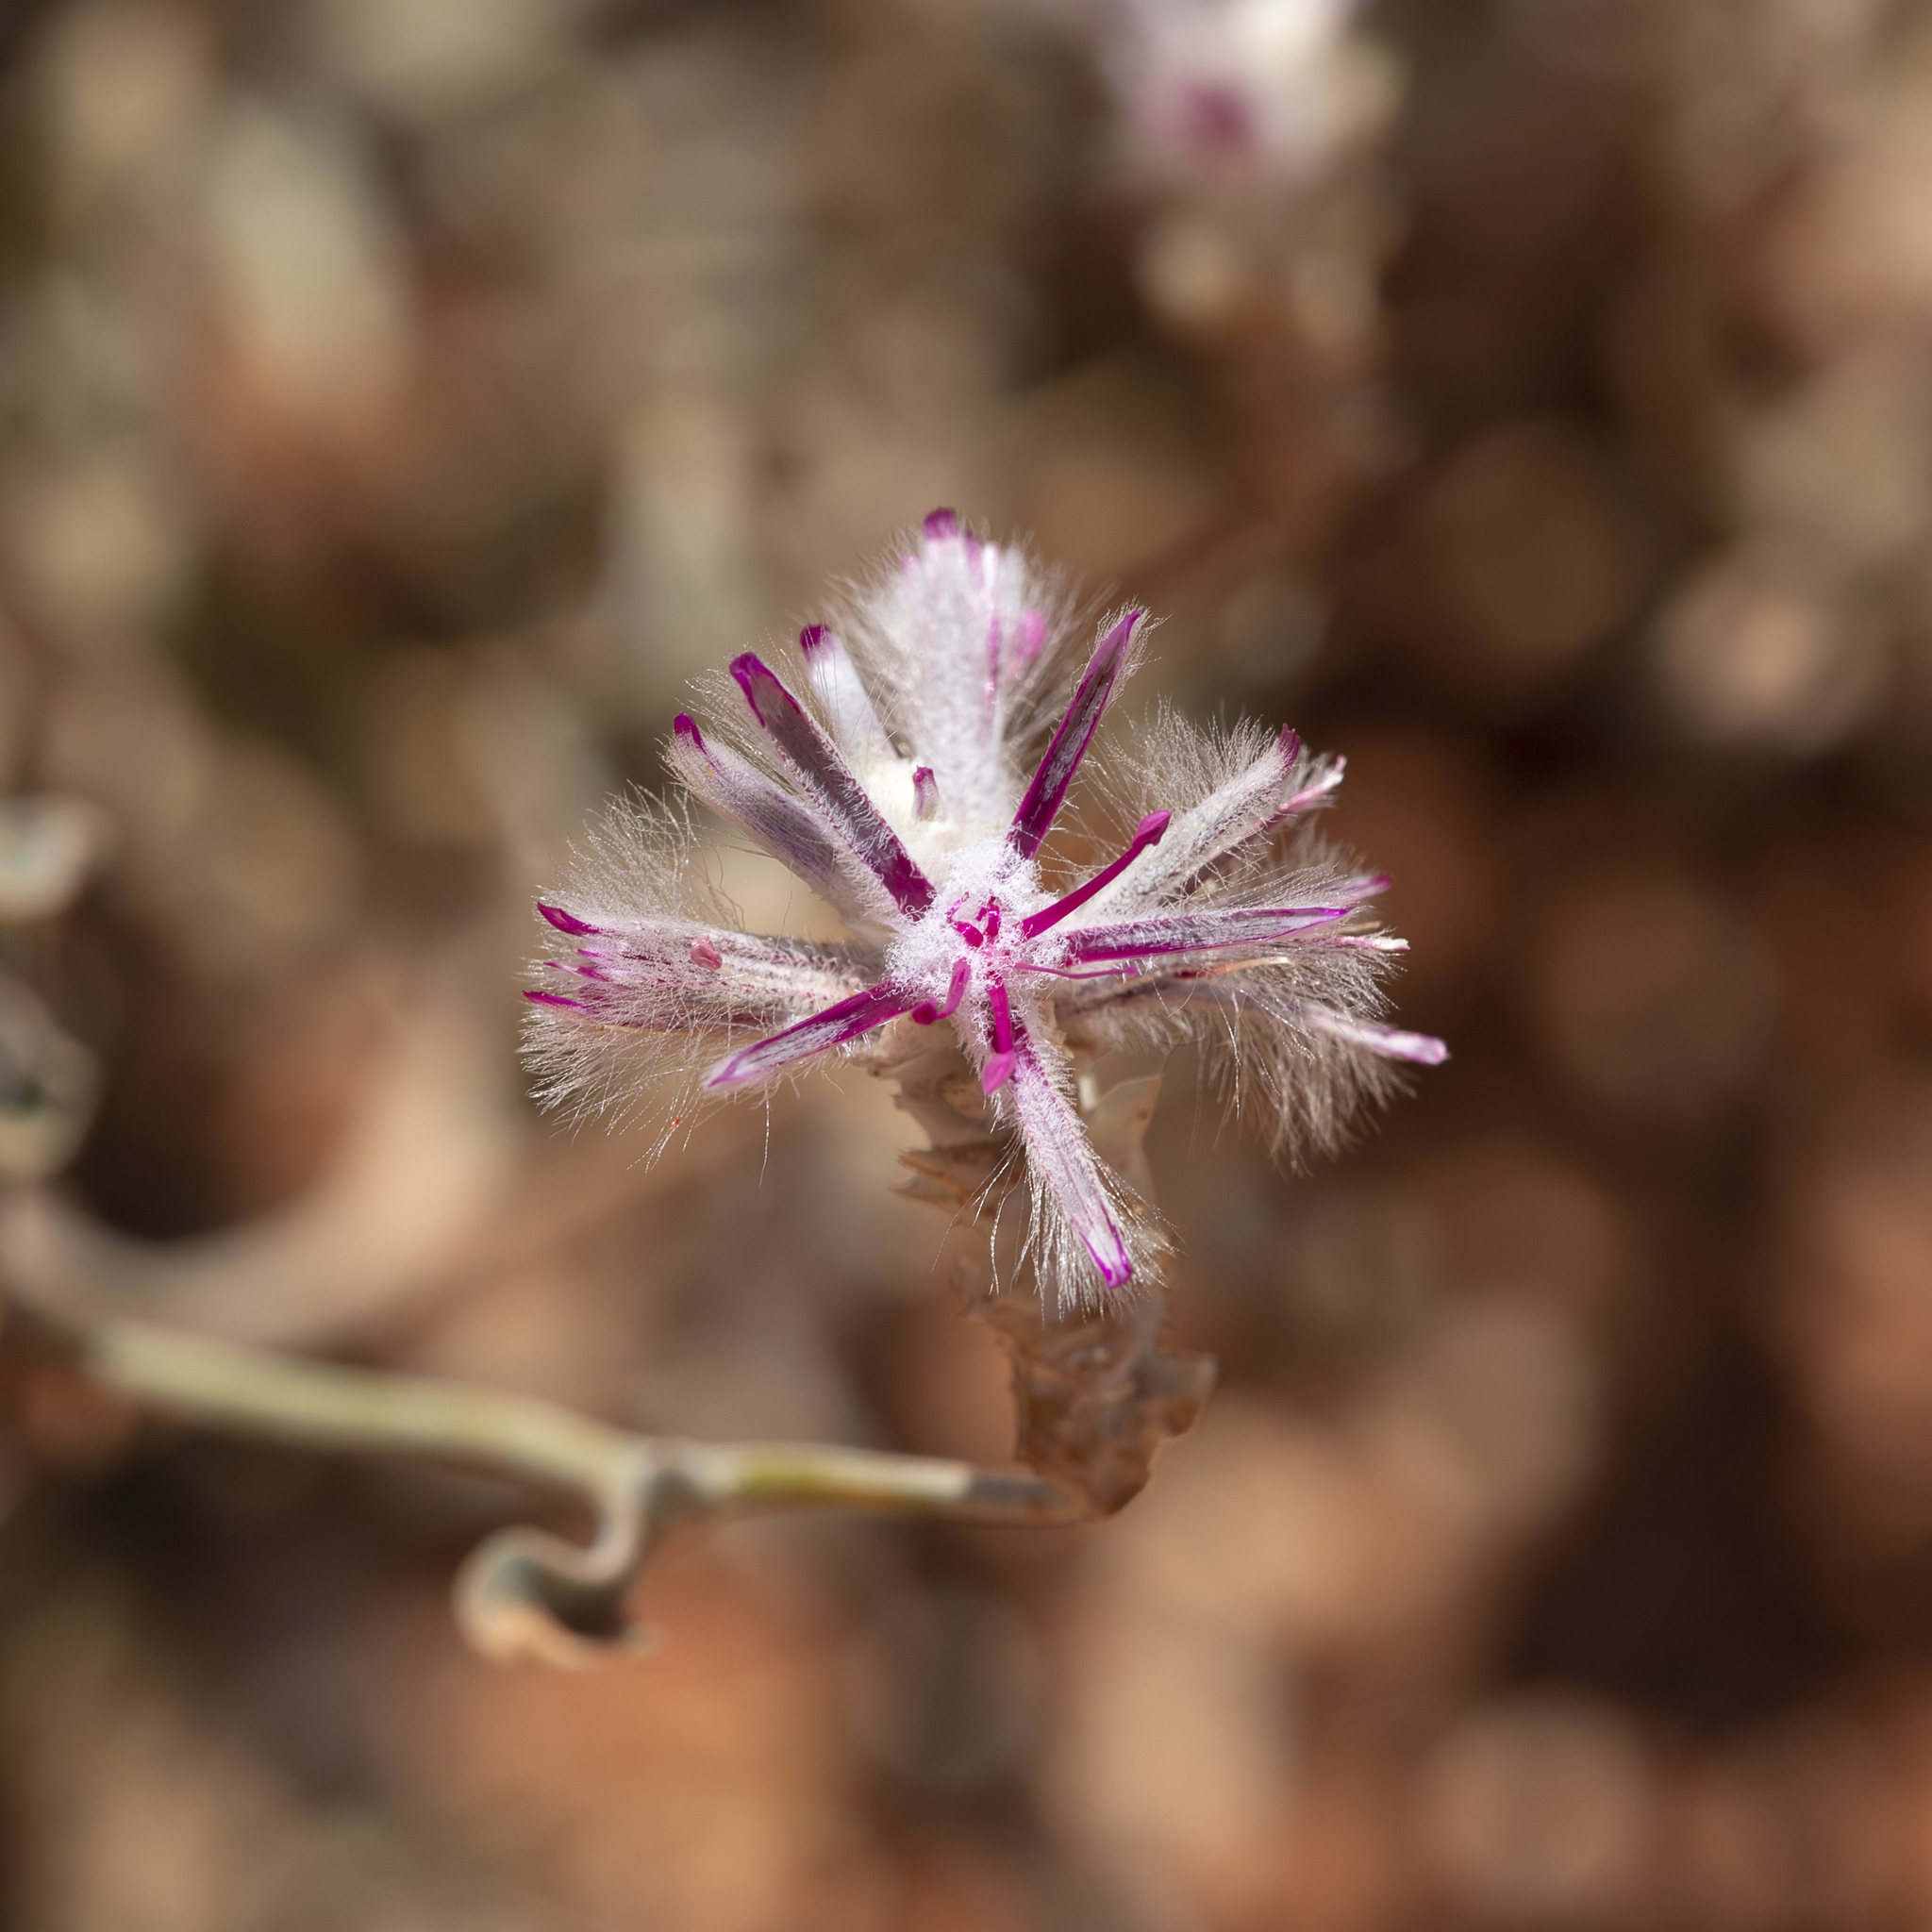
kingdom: Plantae
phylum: Tracheophyta
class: Magnoliopsida
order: Caryophyllales
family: Amaranthaceae
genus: Ptilotus
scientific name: Ptilotus sessilifolius
